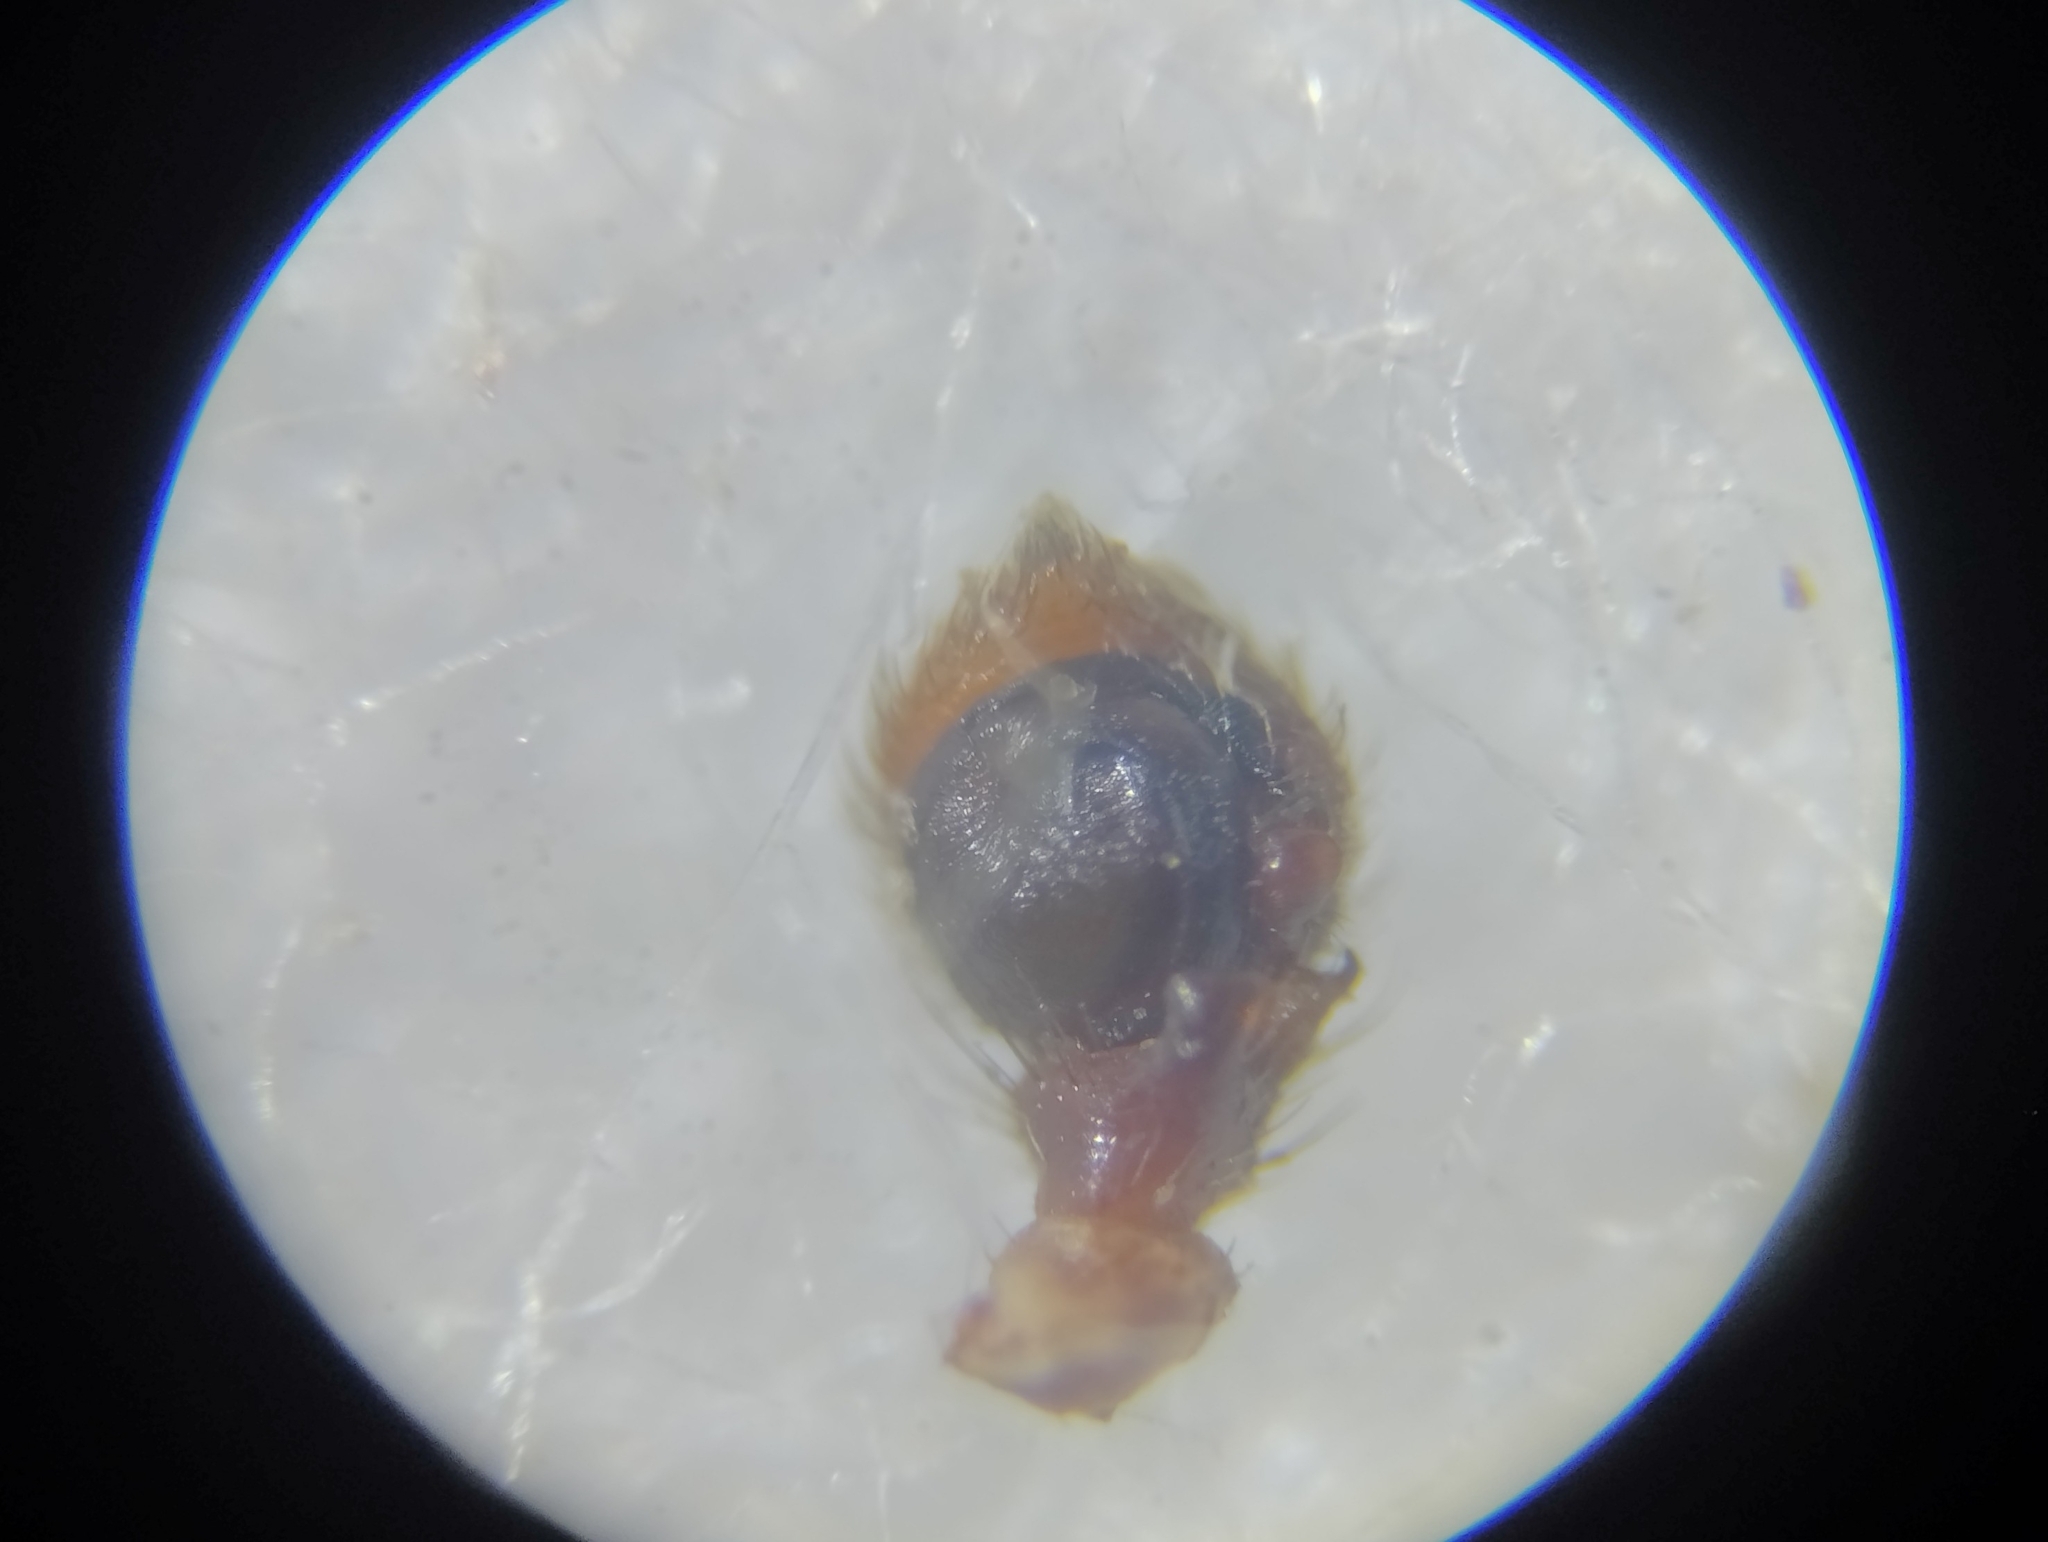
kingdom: Animalia
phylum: Arthropoda
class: Arachnida
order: Araneae
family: Thomisidae
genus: Spiracme
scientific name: Spiracme striatipes
